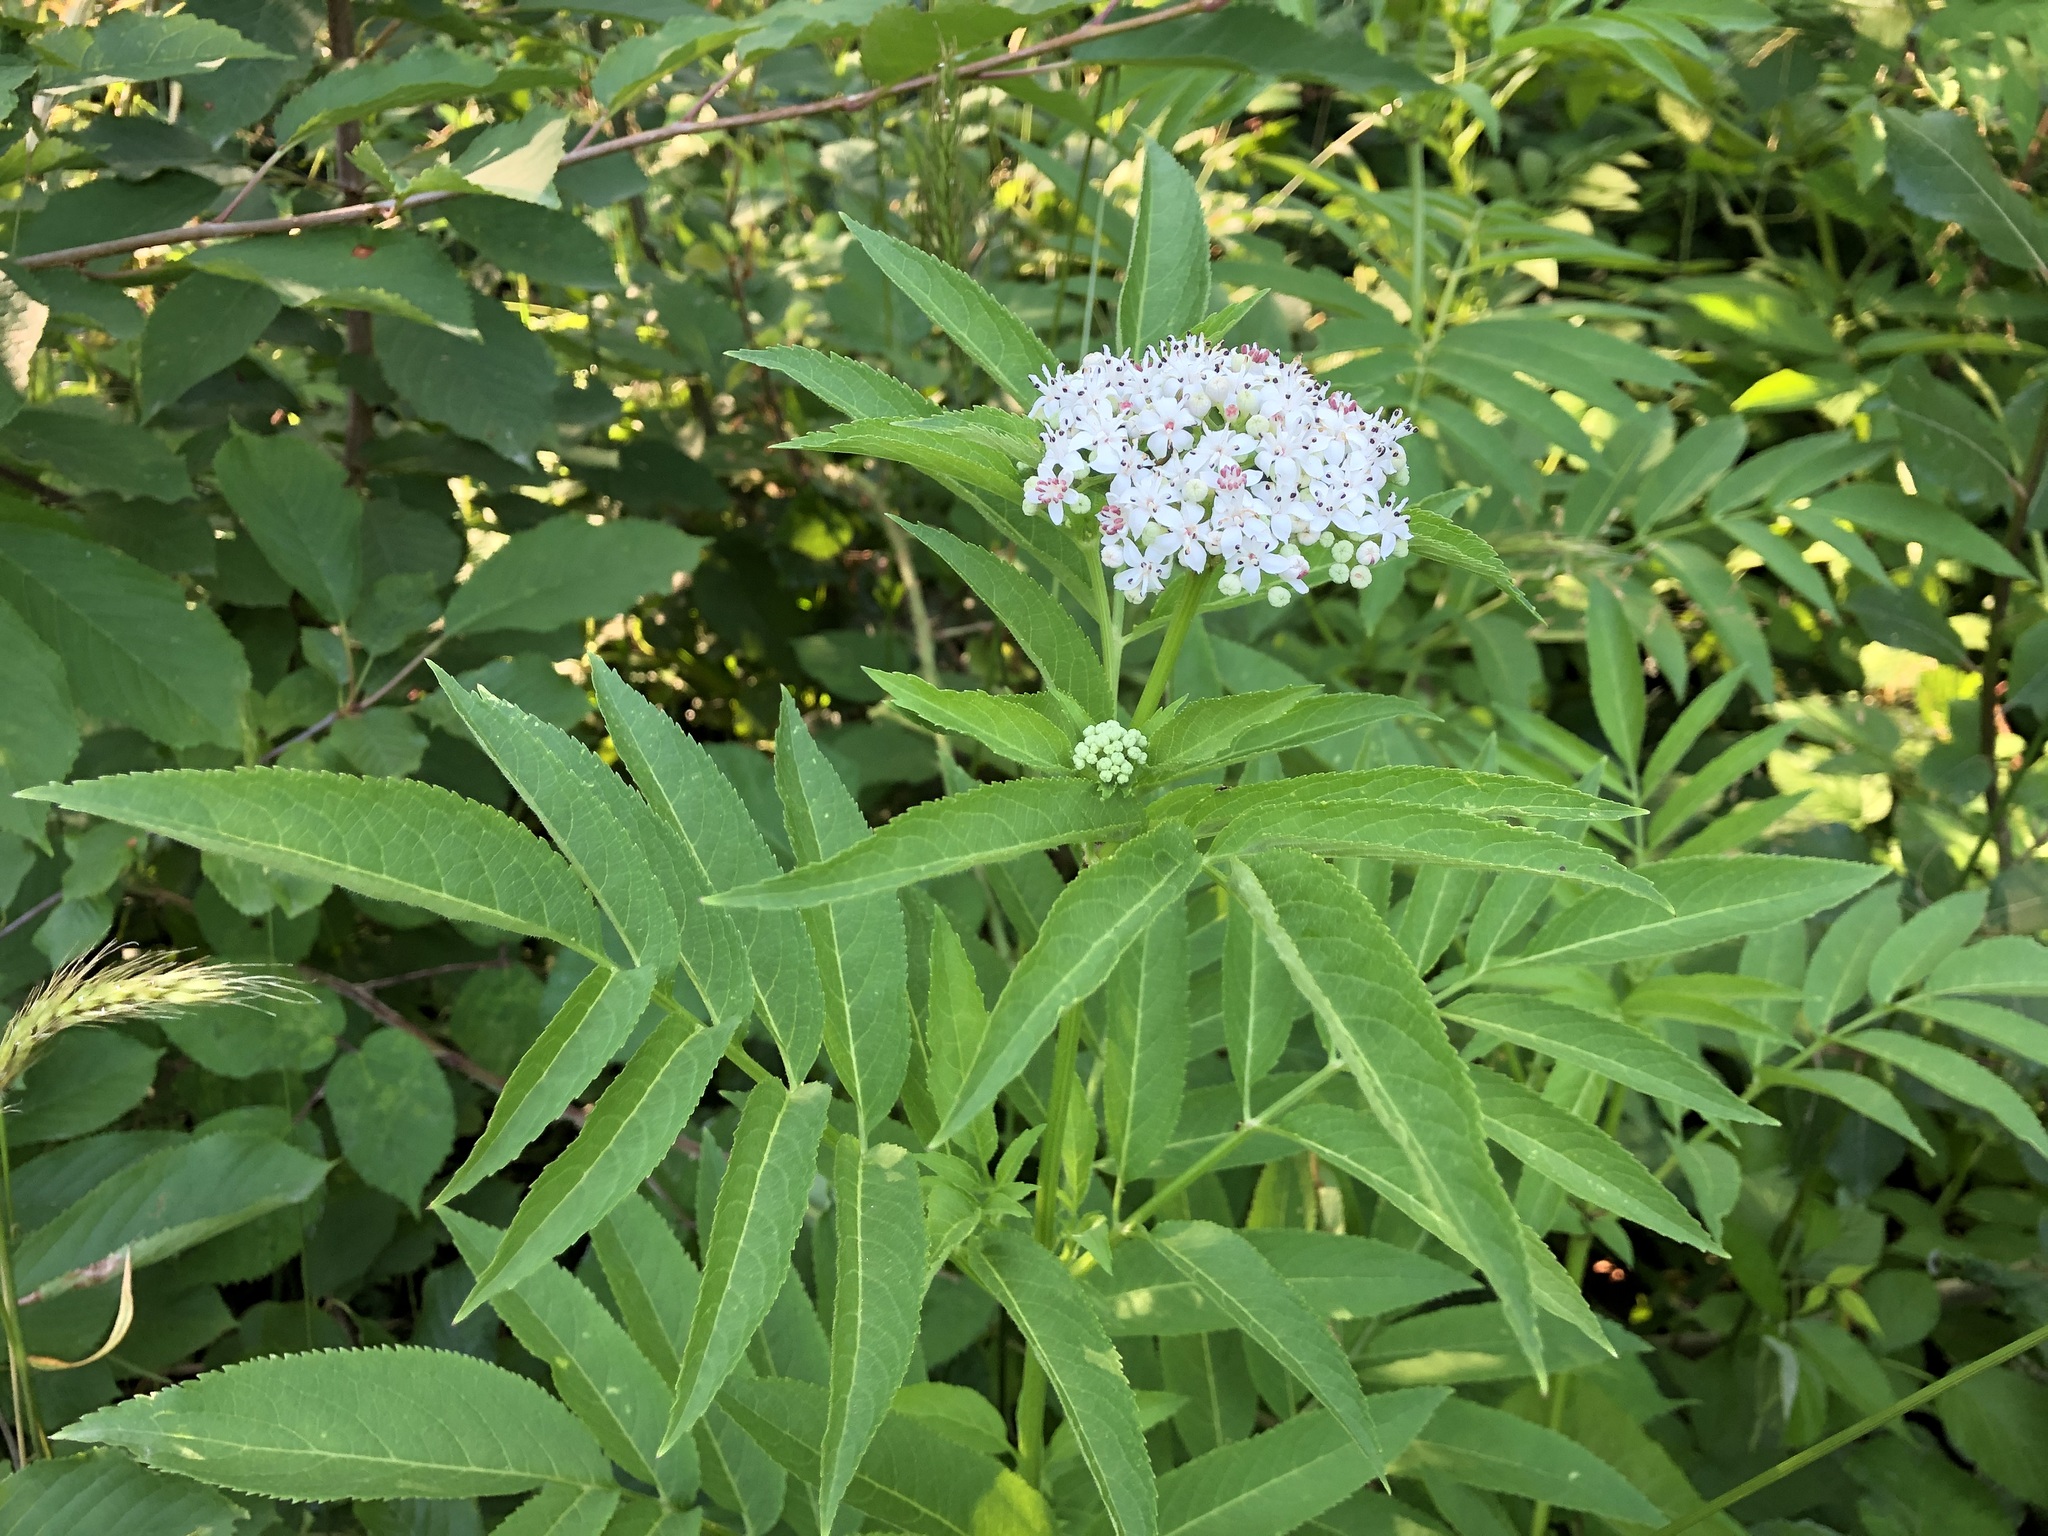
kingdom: Plantae
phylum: Tracheophyta
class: Magnoliopsida
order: Dipsacales
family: Viburnaceae
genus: Sambucus
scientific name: Sambucus ebulus
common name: Dwarf elder
